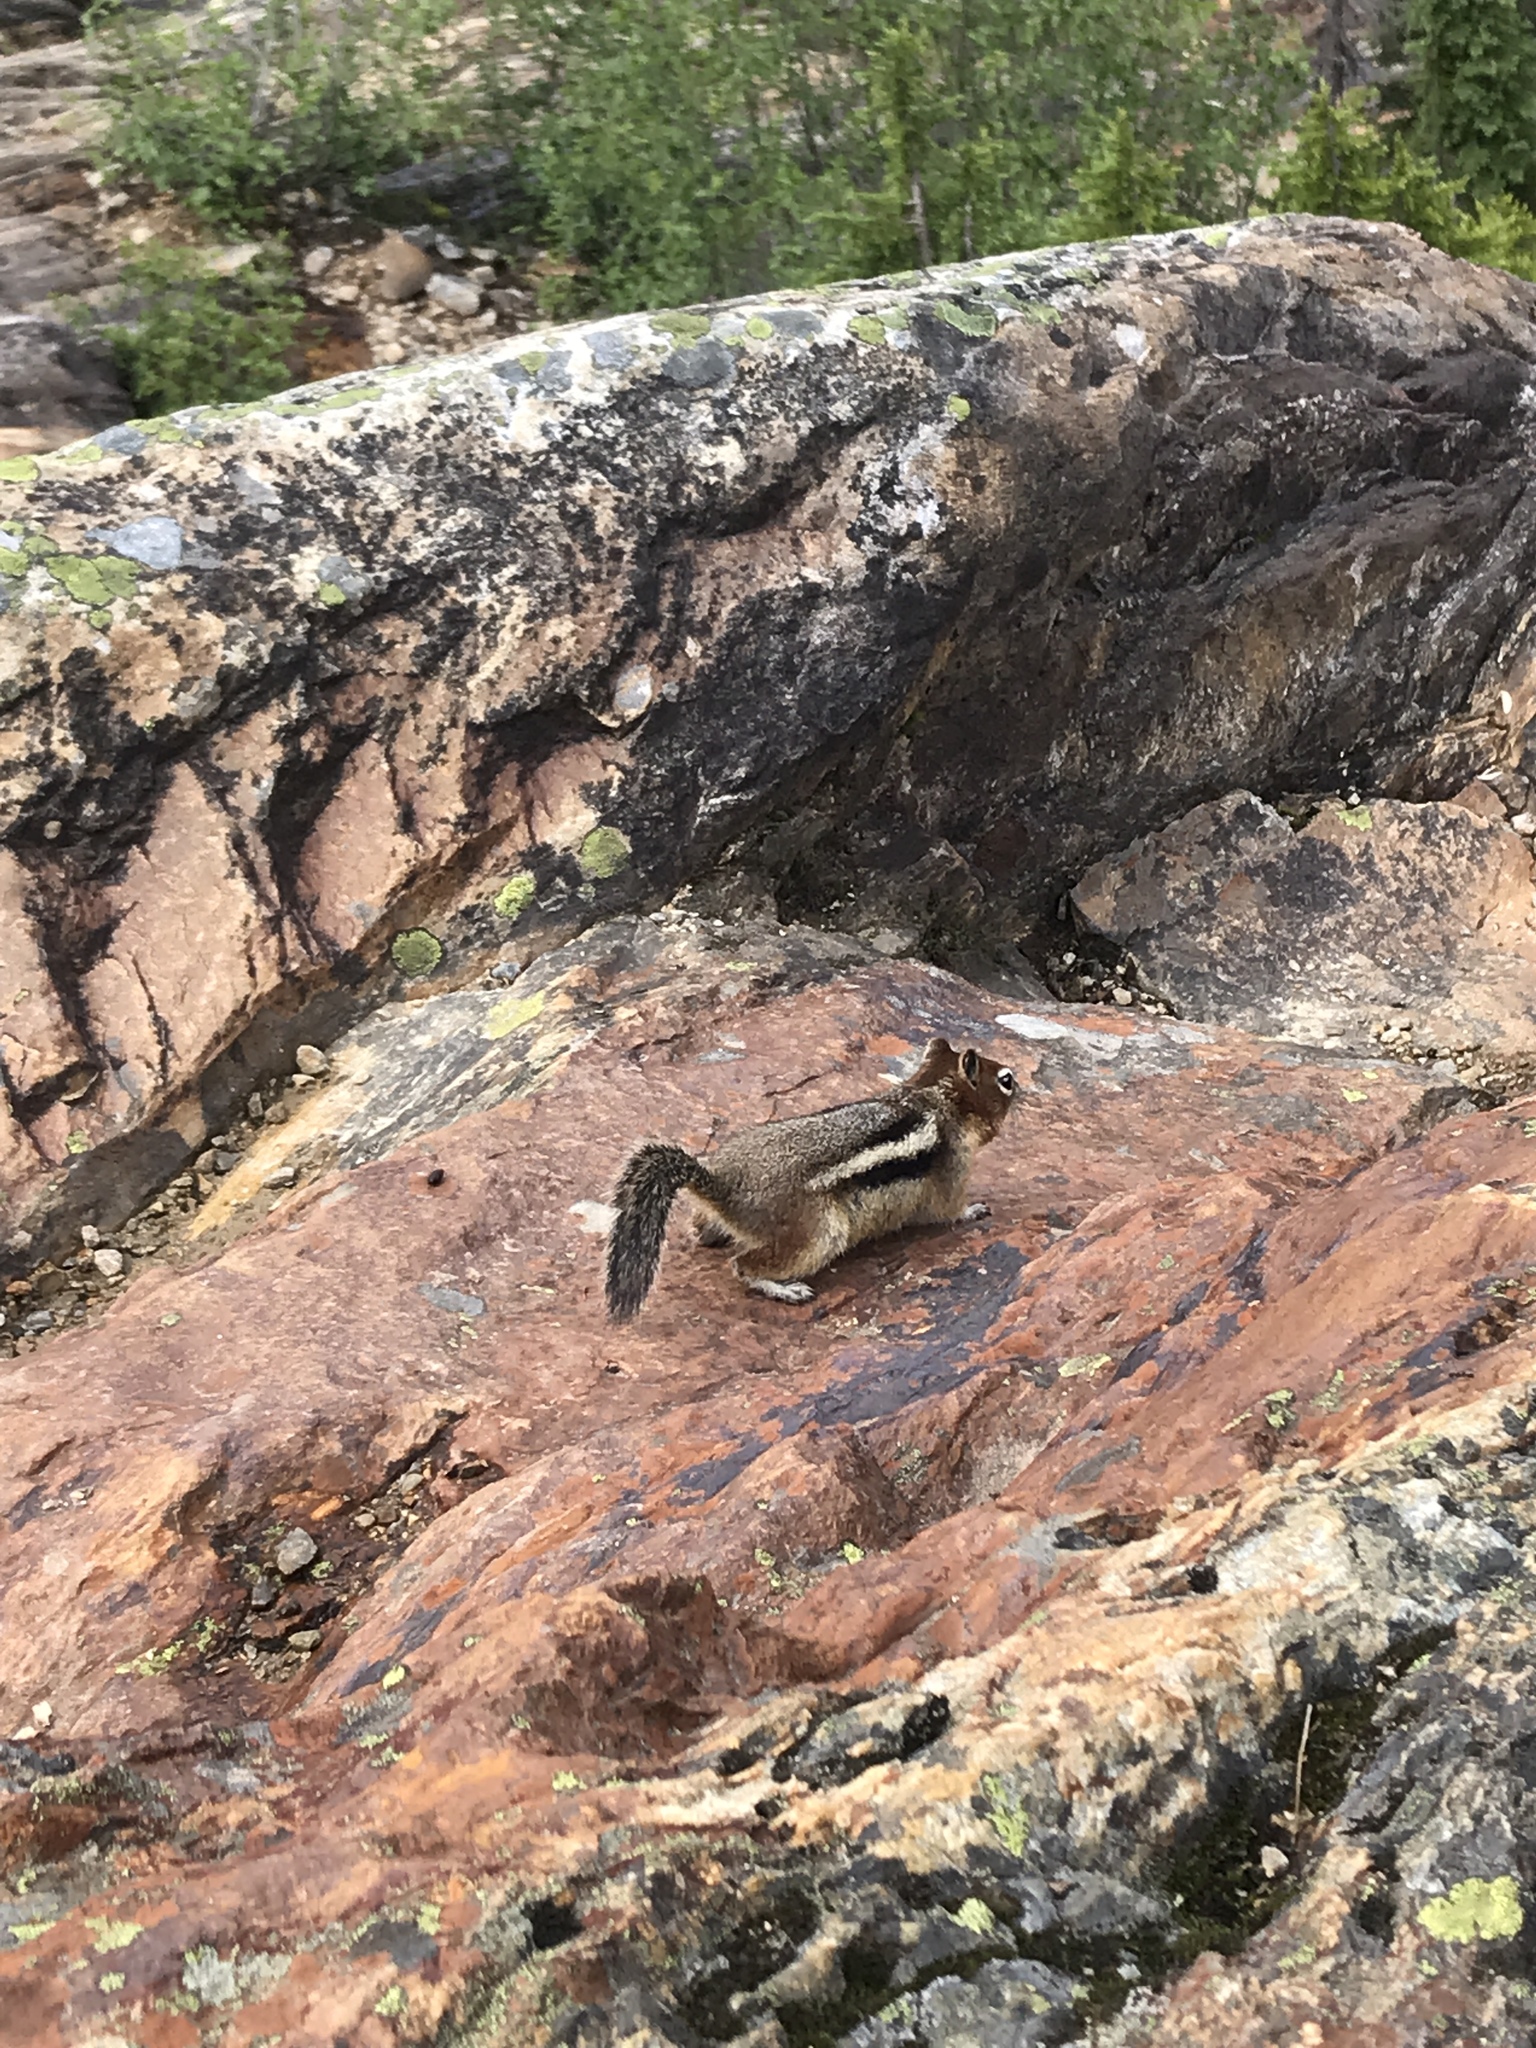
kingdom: Animalia
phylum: Chordata
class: Mammalia
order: Rodentia
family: Sciuridae
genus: Callospermophilus
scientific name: Callospermophilus lateralis
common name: Golden-mantled ground squirrel
